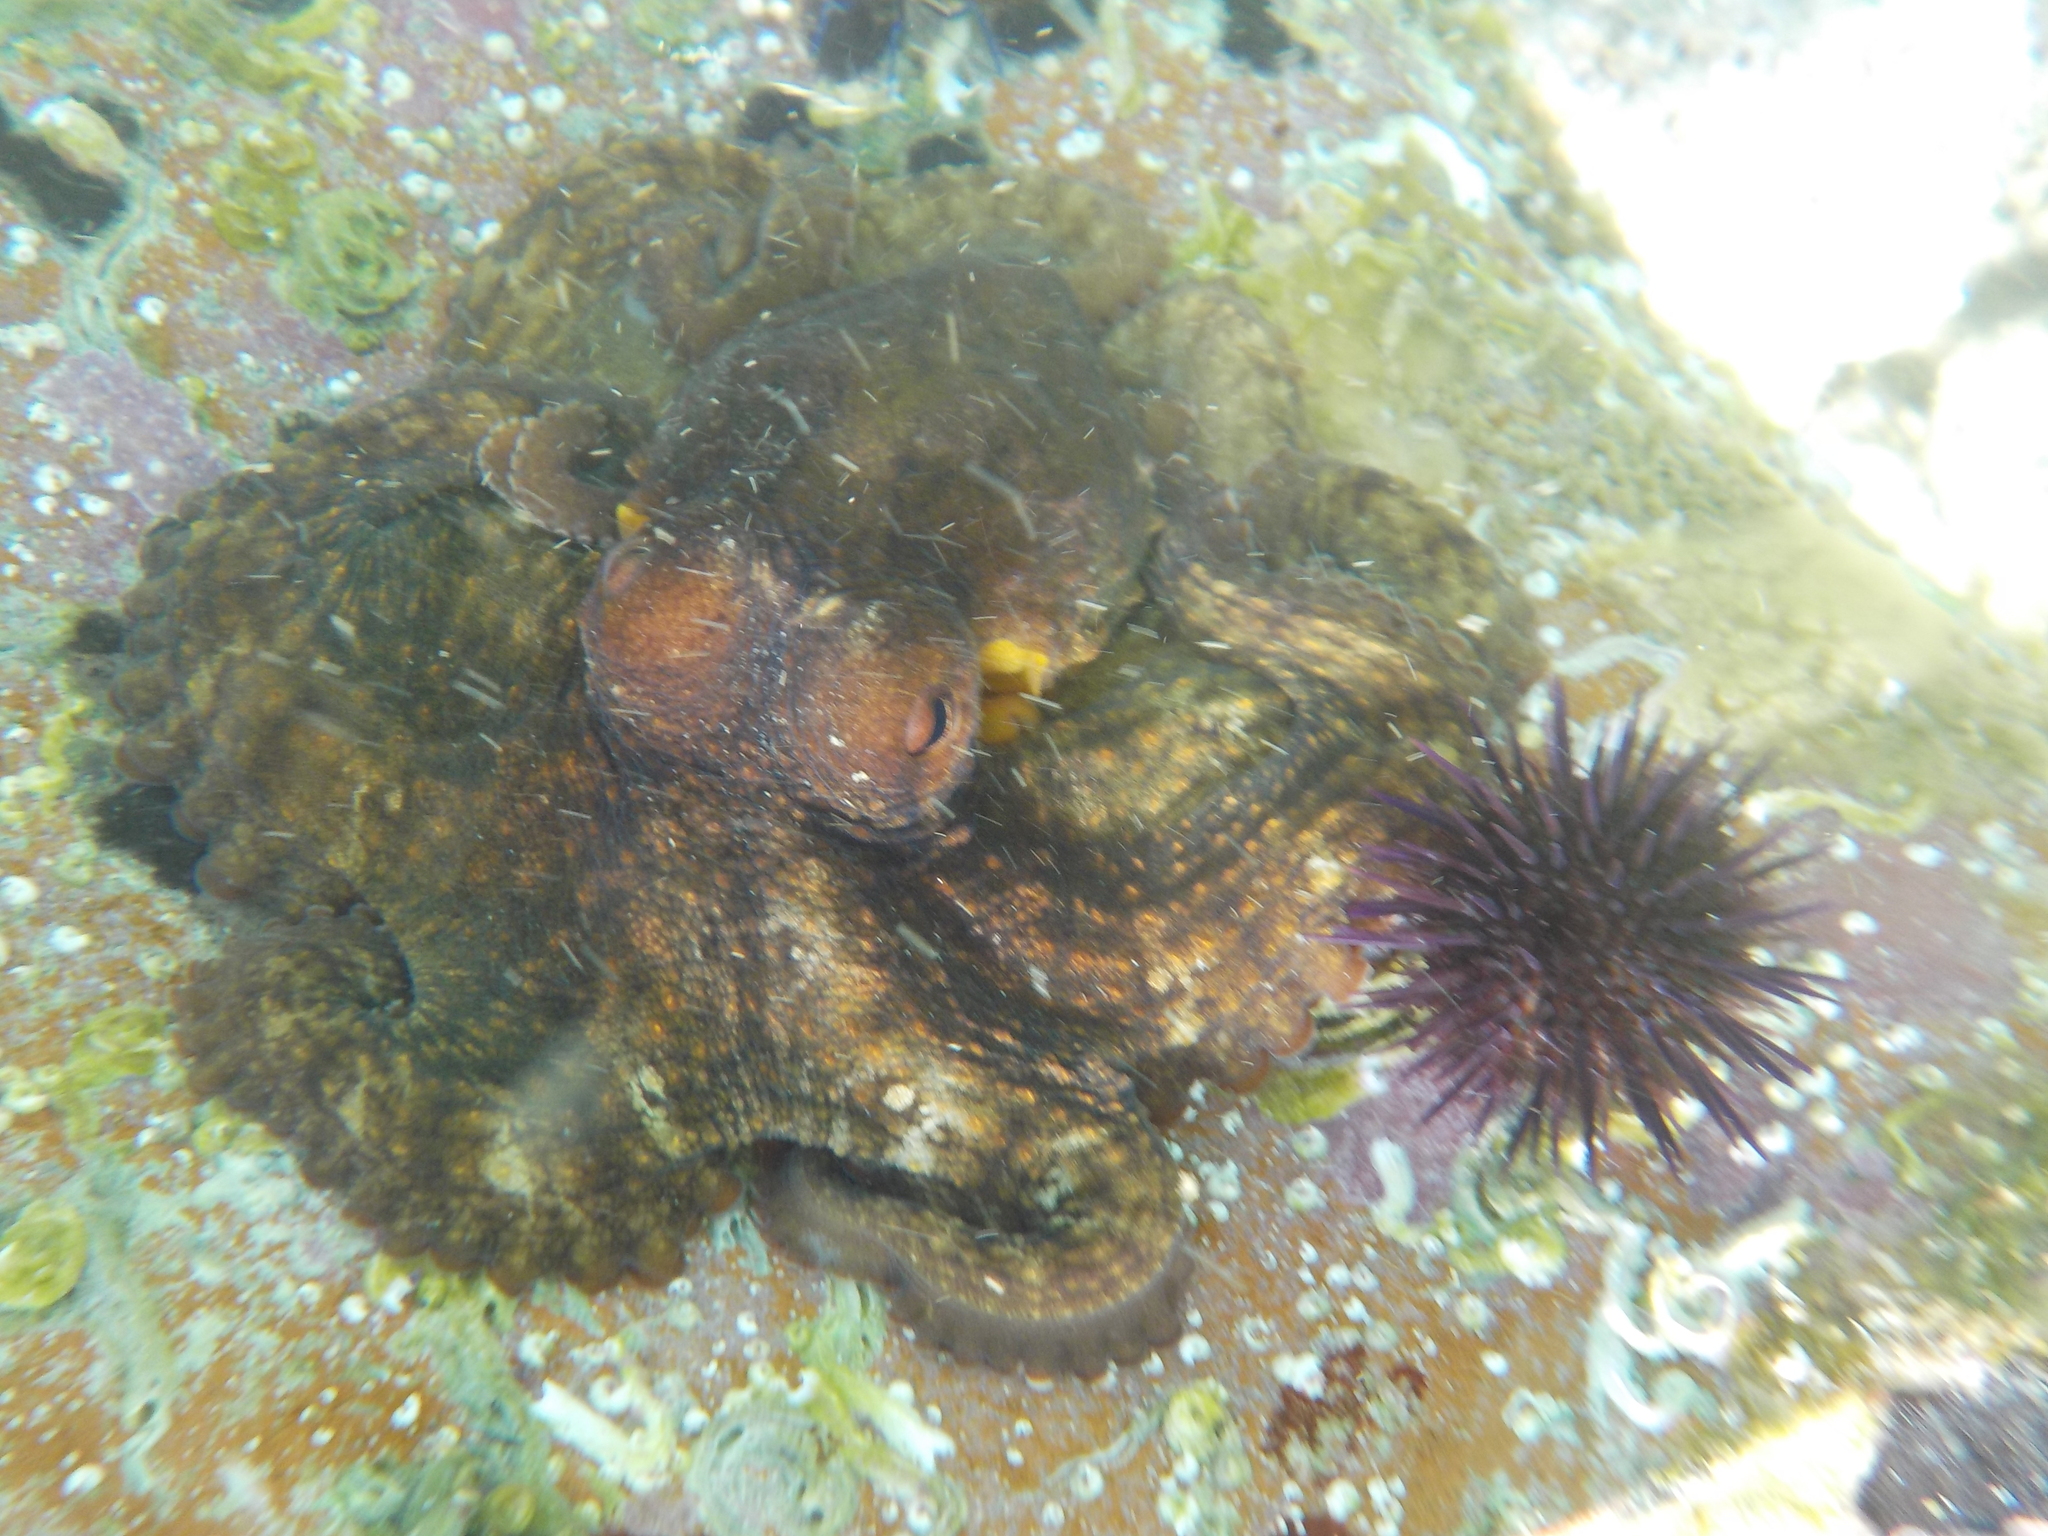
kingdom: Animalia
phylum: Mollusca
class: Cephalopoda
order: Octopoda
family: Octopodidae
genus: Octopus
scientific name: Octopus vulgaris
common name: Common octopus
